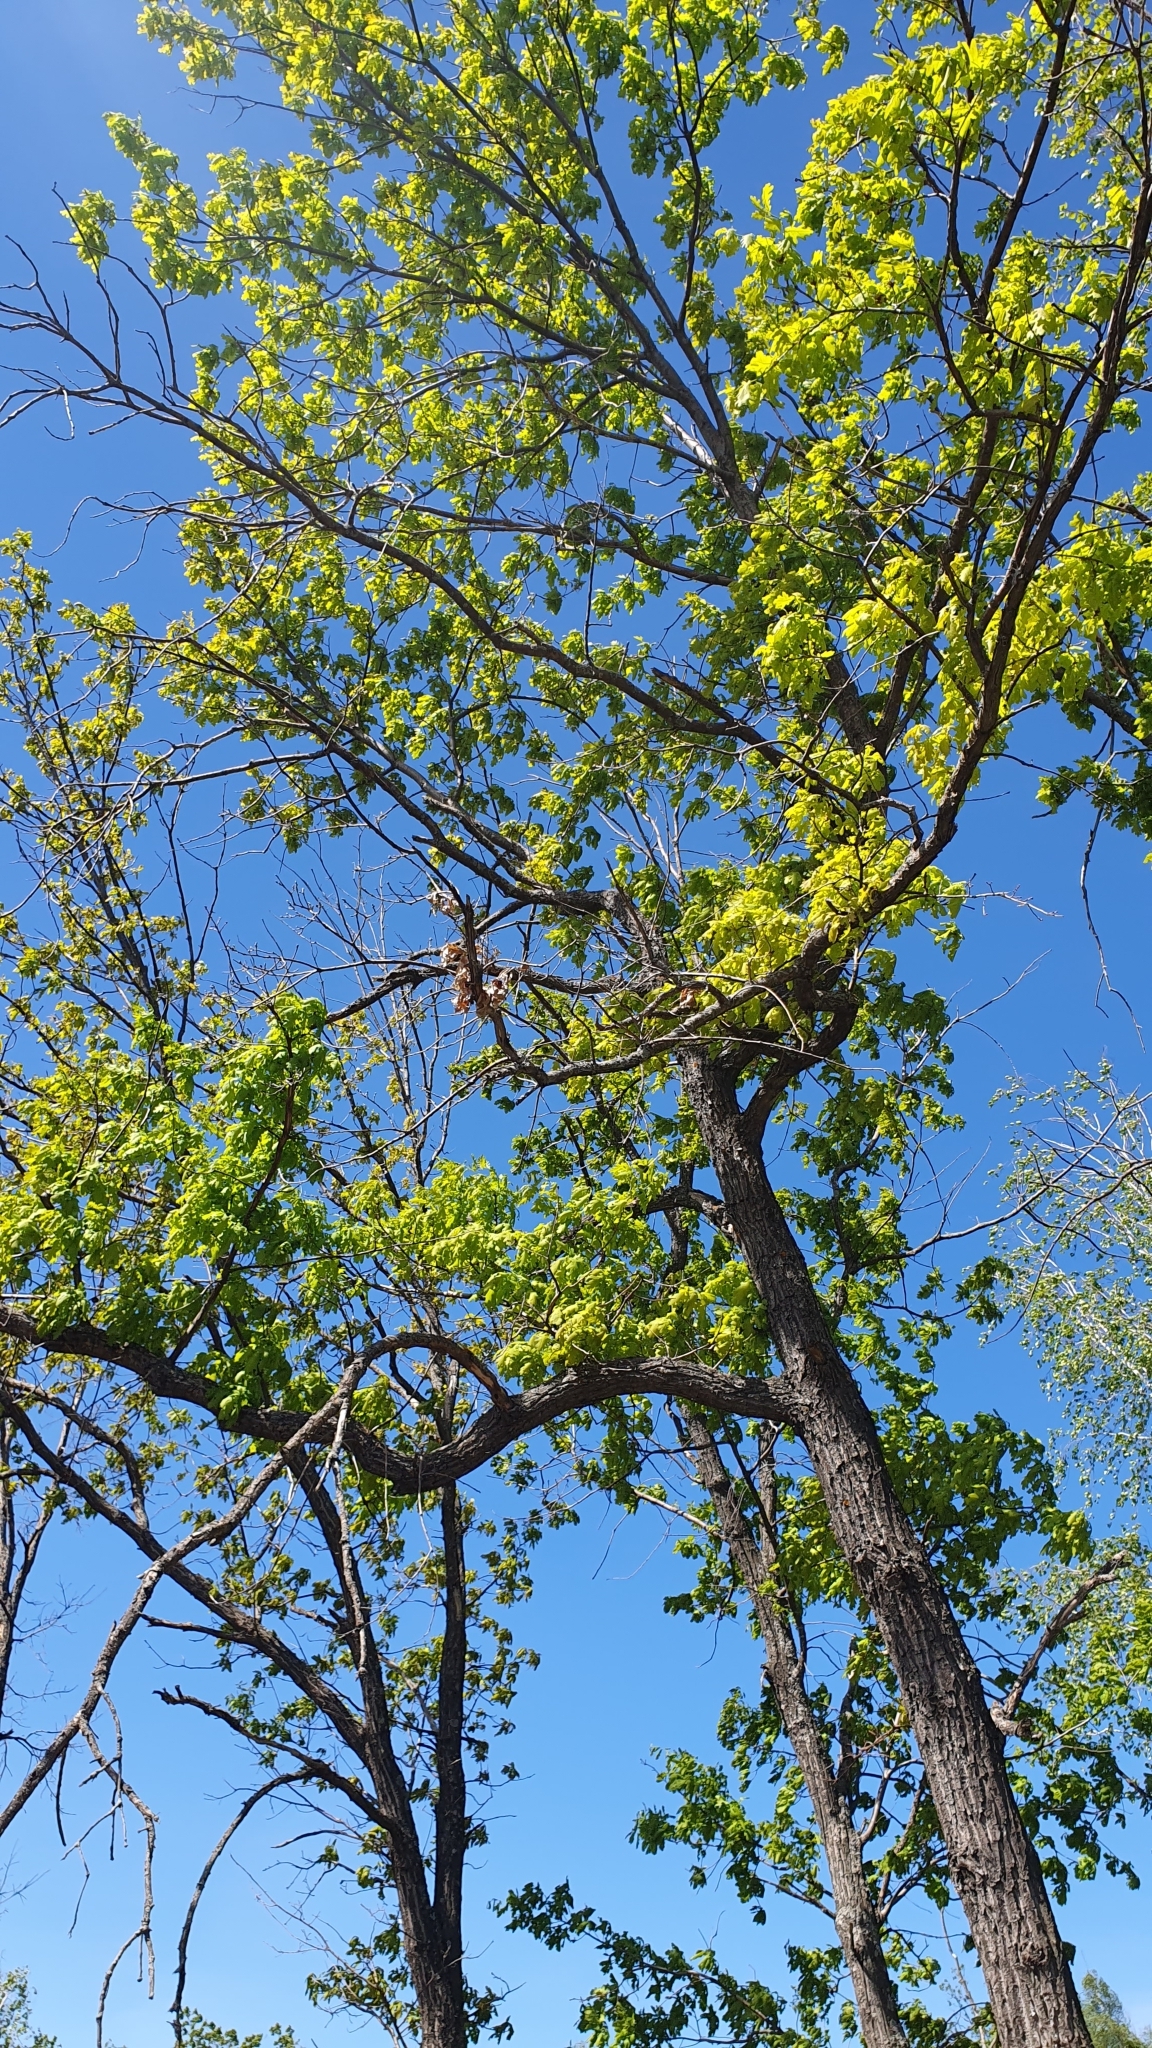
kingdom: Plantae
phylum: Tracheophyta
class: Magnoliopsida
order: Fagales
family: Fagaceae
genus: Quercus
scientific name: Quercus robur
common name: Pedunculate oak
